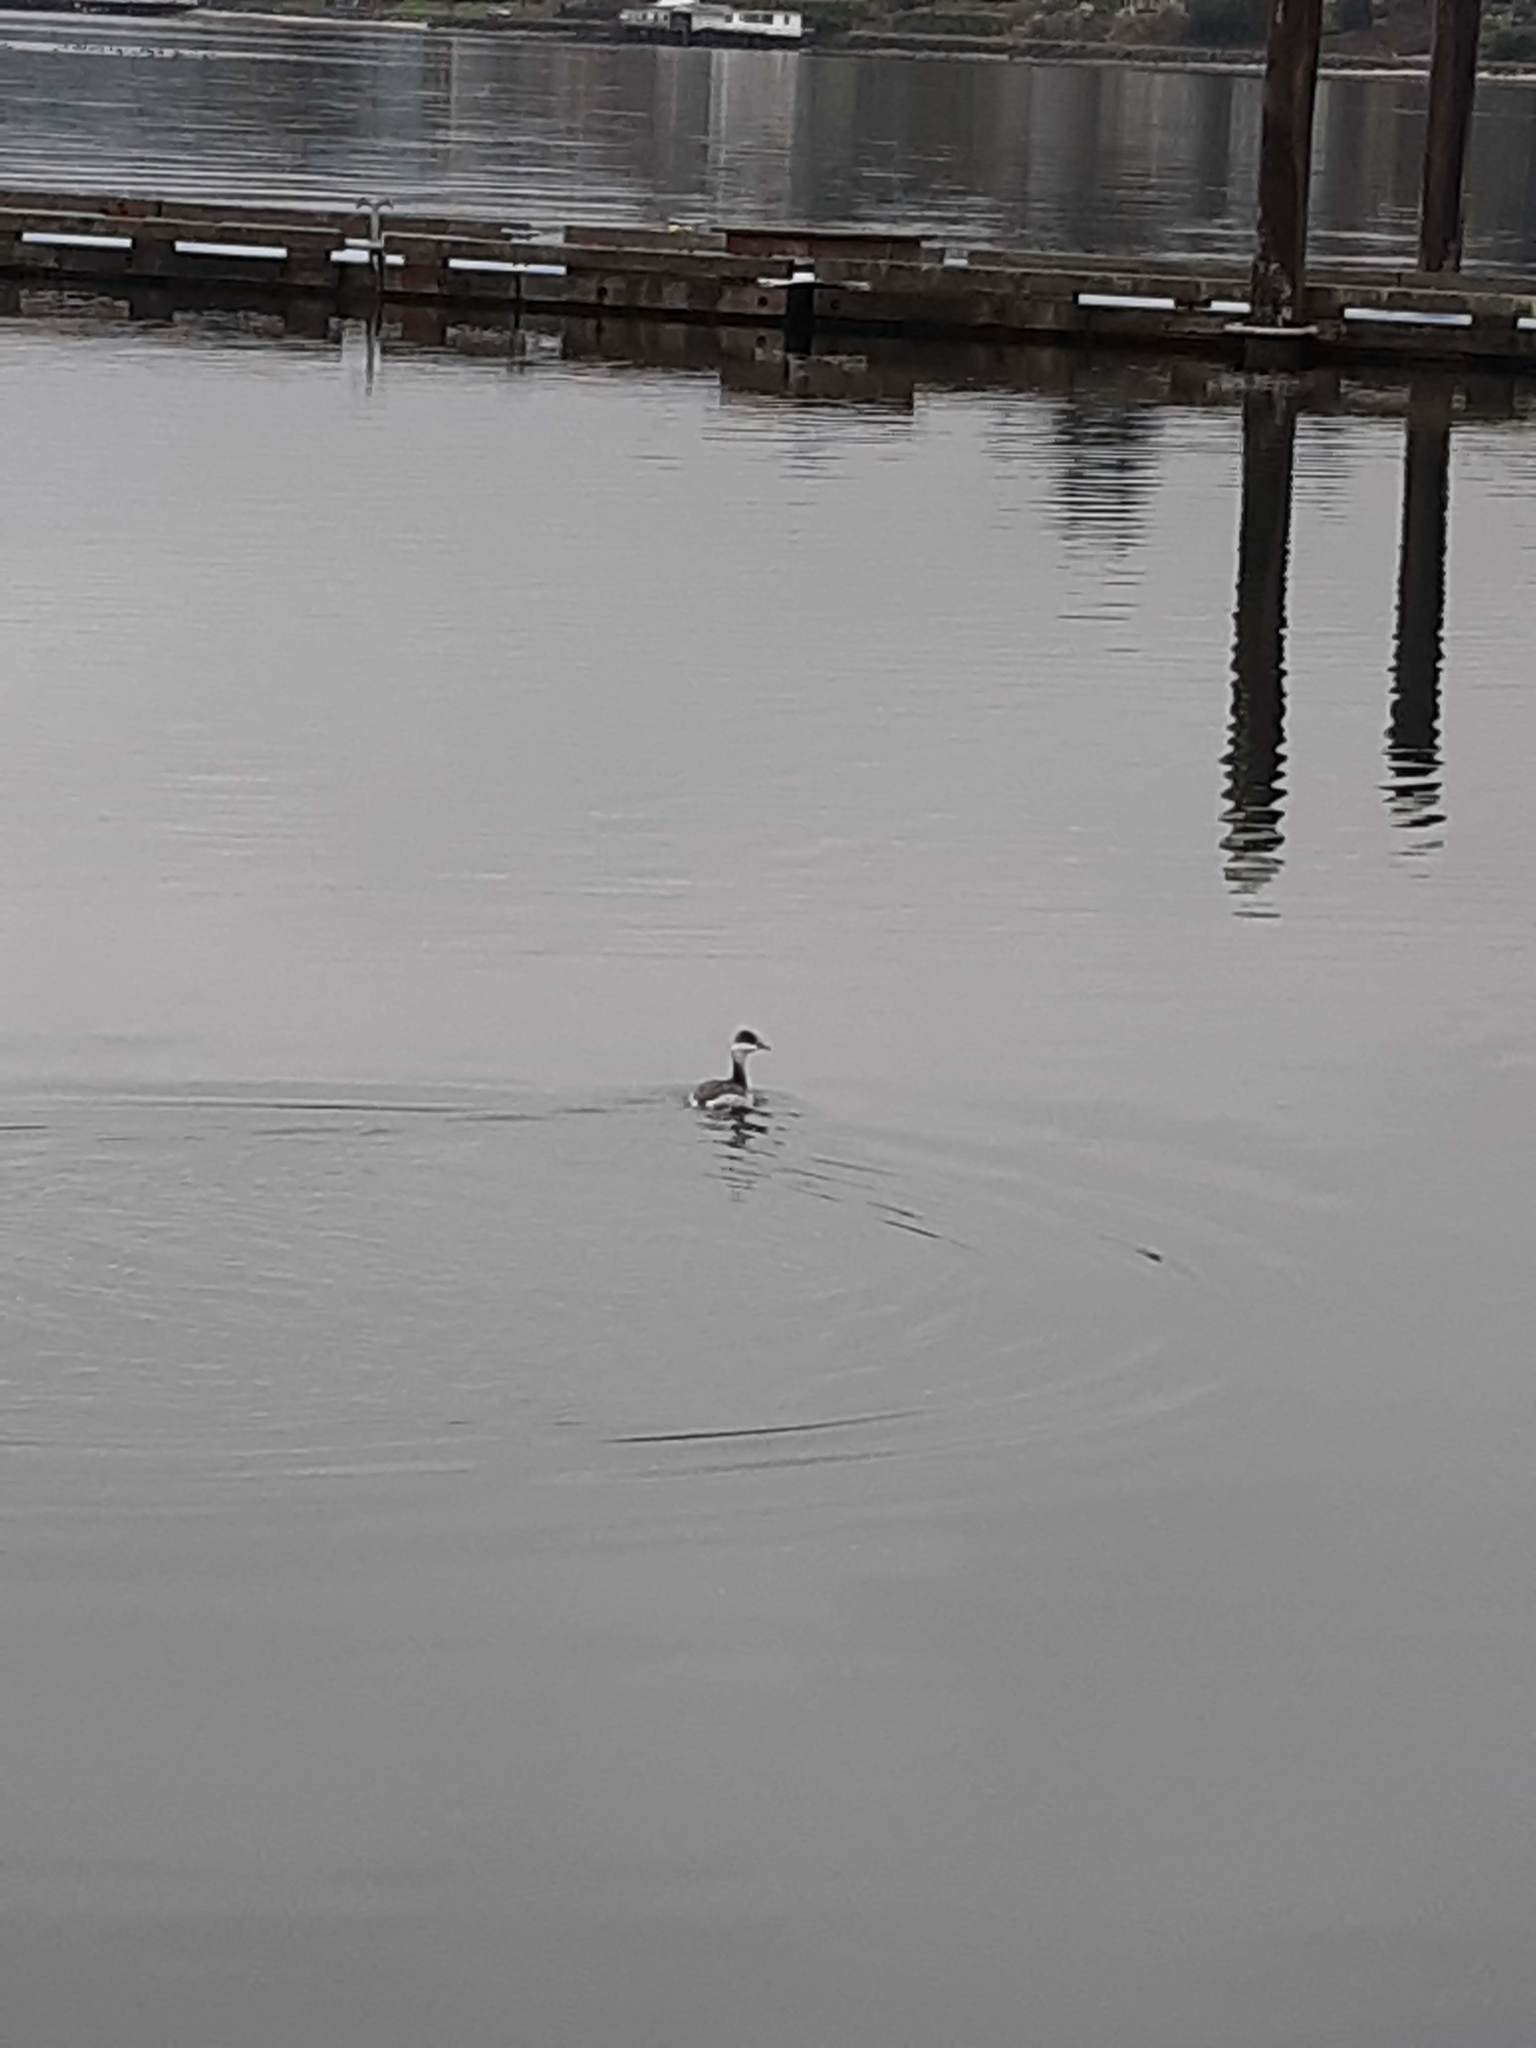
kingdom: Animalia
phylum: Chordata
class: Aves
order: Podicipediformes
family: Podicipedidae
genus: Podiceps
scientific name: Podiceps auritus
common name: Horned grebe
